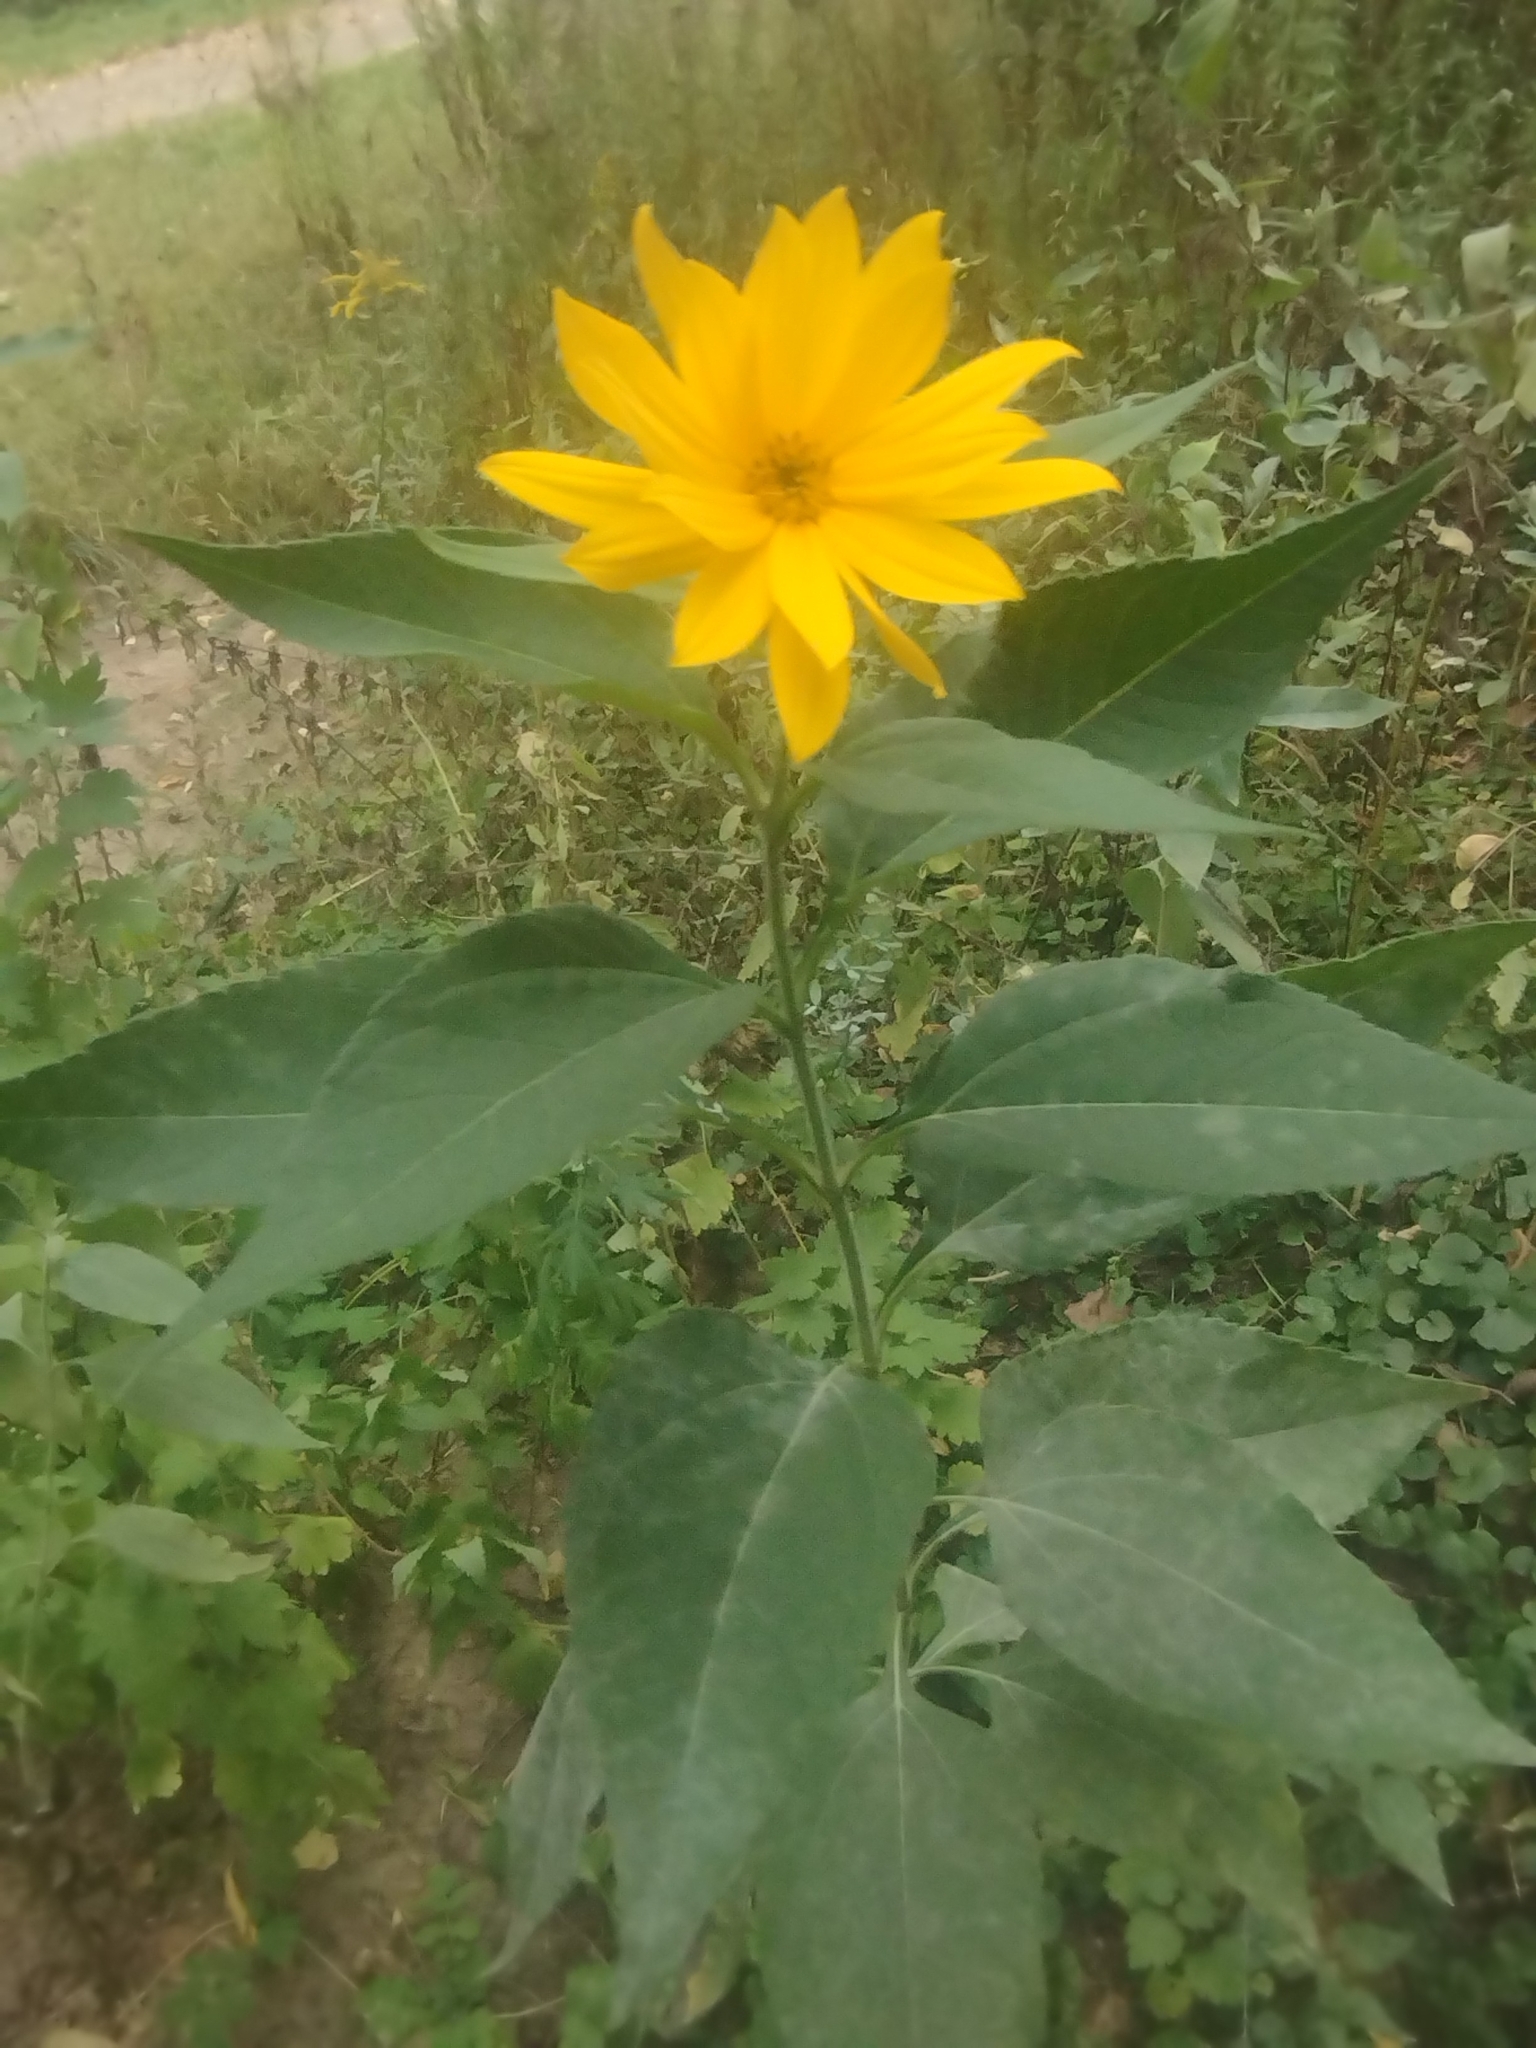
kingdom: Plantae
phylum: Tracheophyta
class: Magnoliopsida
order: Asterales
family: Asteraceae
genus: Helianthus
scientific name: Helianthus tuberosus
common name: Jerusalem artichoke
